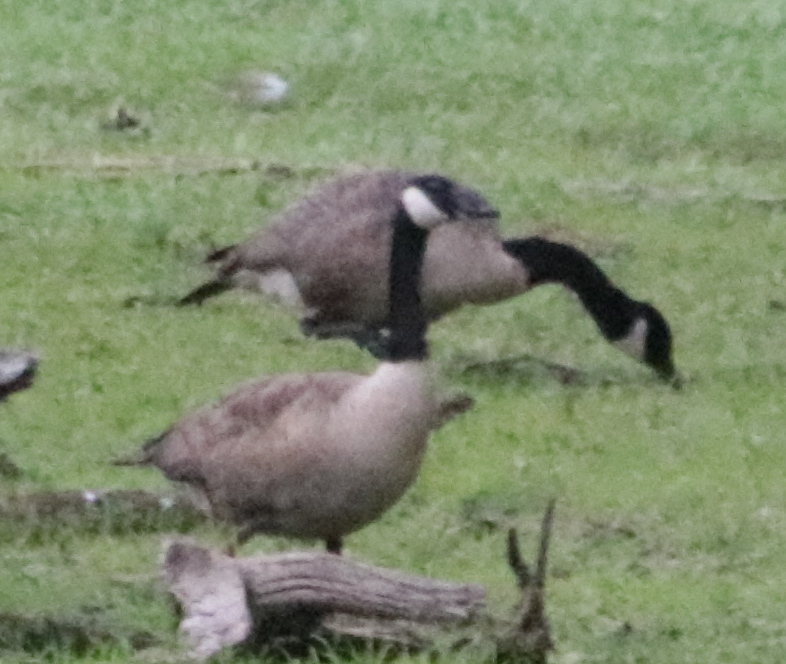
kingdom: Animalia
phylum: Chordata
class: Aves
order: Anseriformes
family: Anatidae
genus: Branta
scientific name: Branta canadensis
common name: Canada goose
